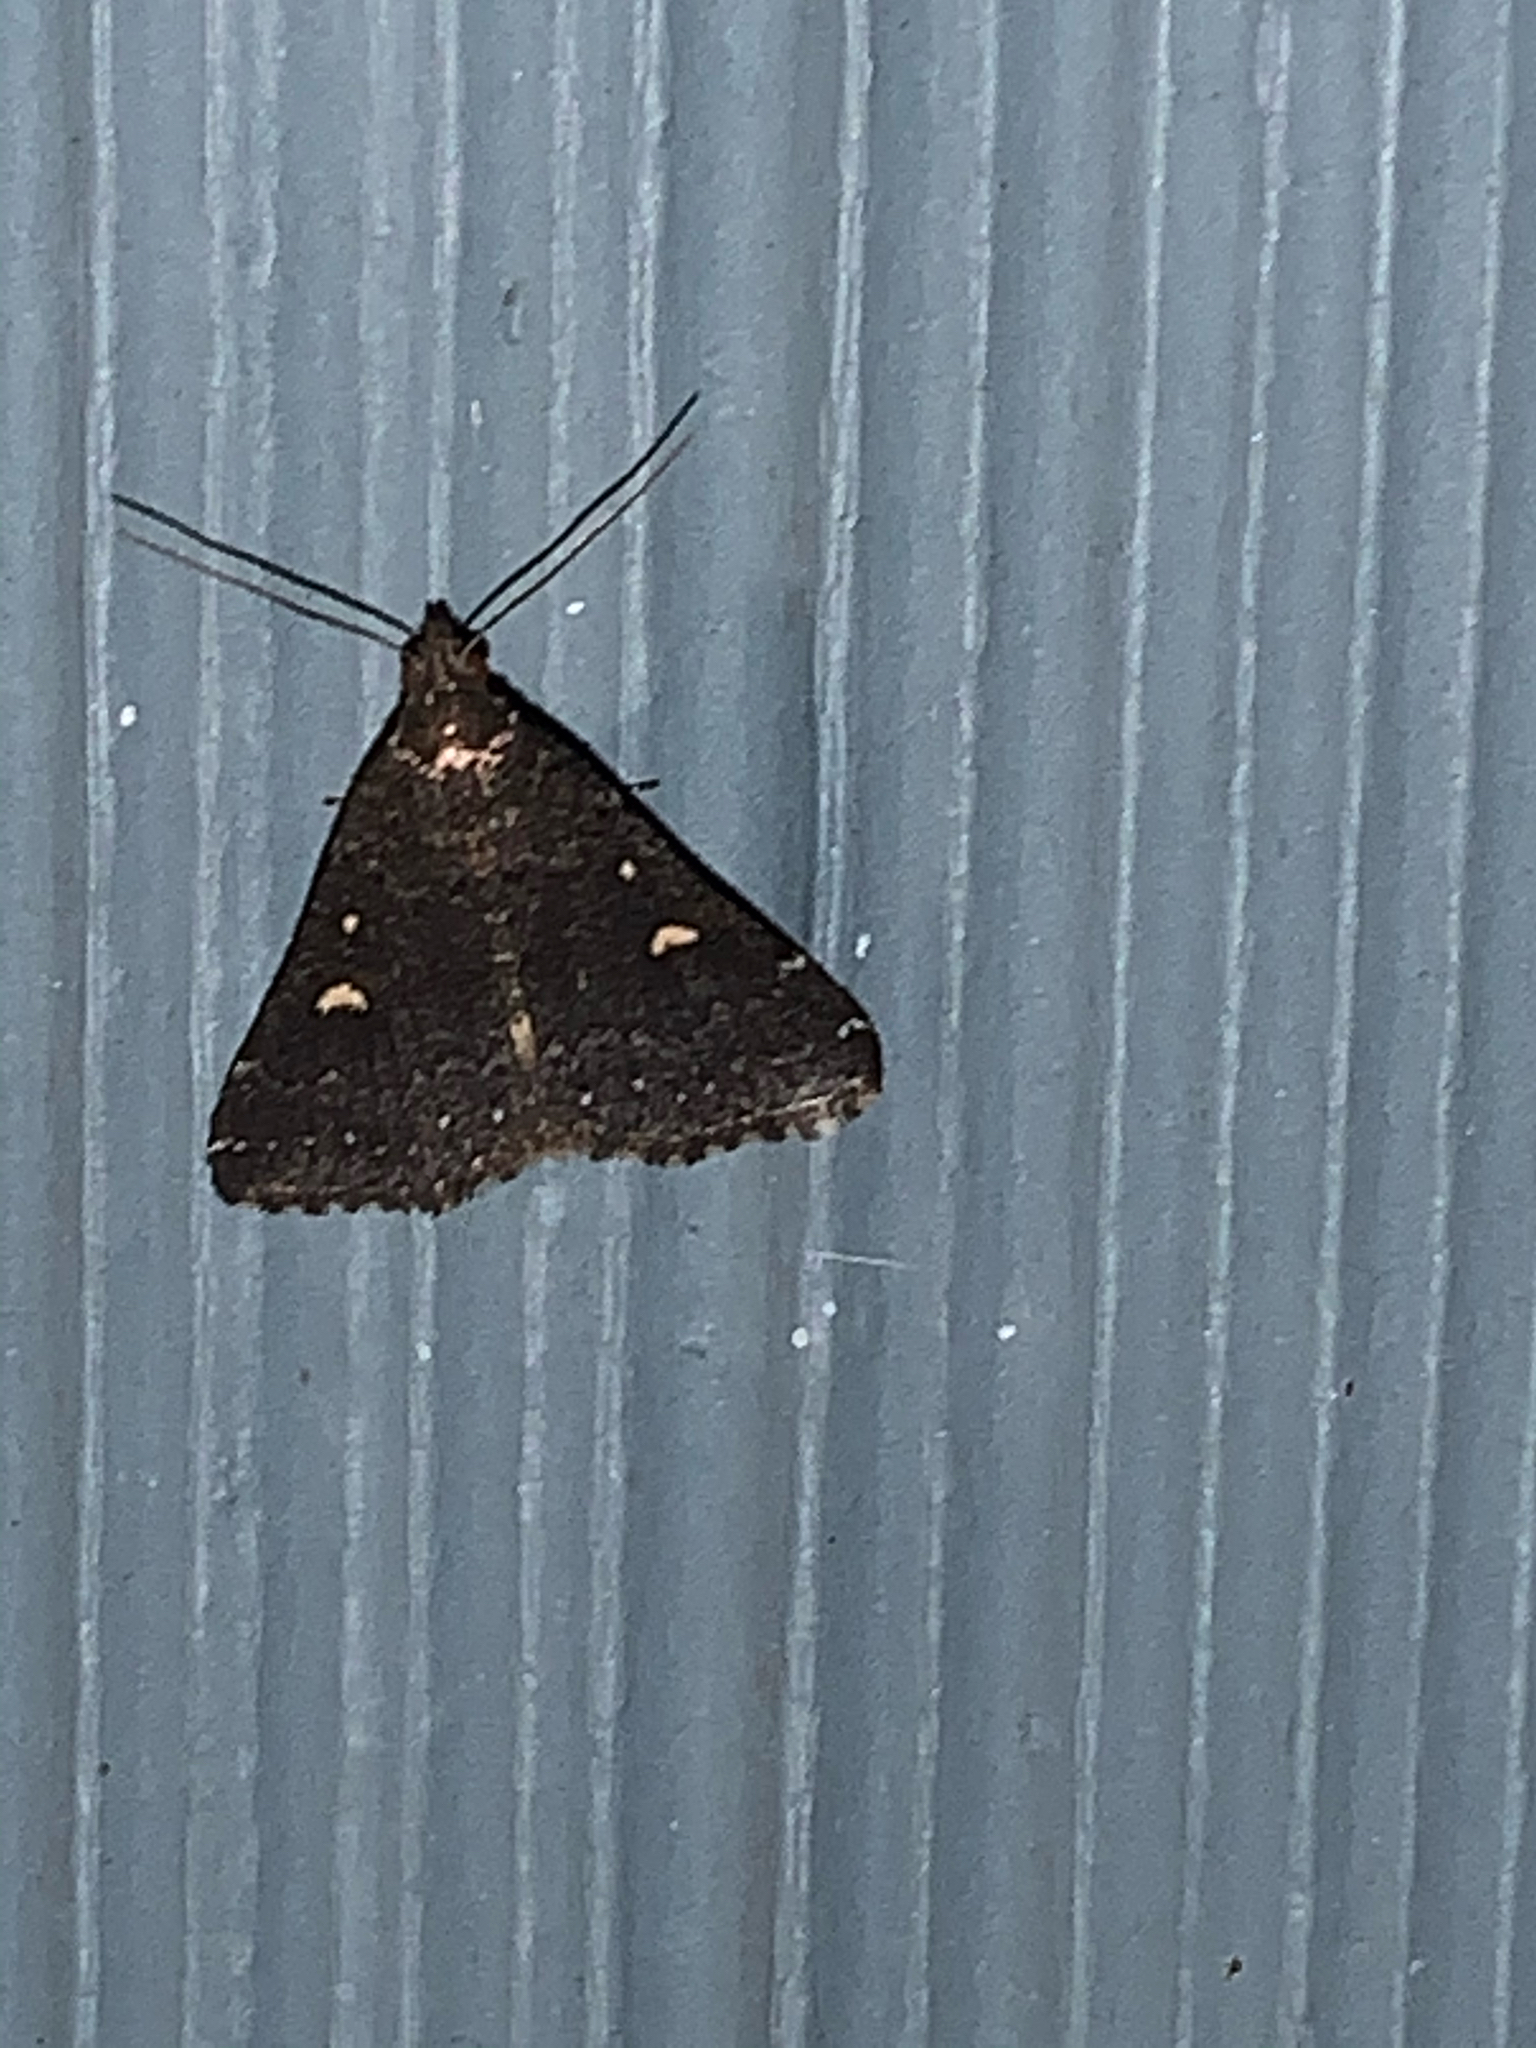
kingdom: Animalia
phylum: Arthropoda
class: Insecta
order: Lepidoptera
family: Erebidae
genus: Tetanolita
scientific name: Tetanolita mynesalis
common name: Smoky tetanolita moth
